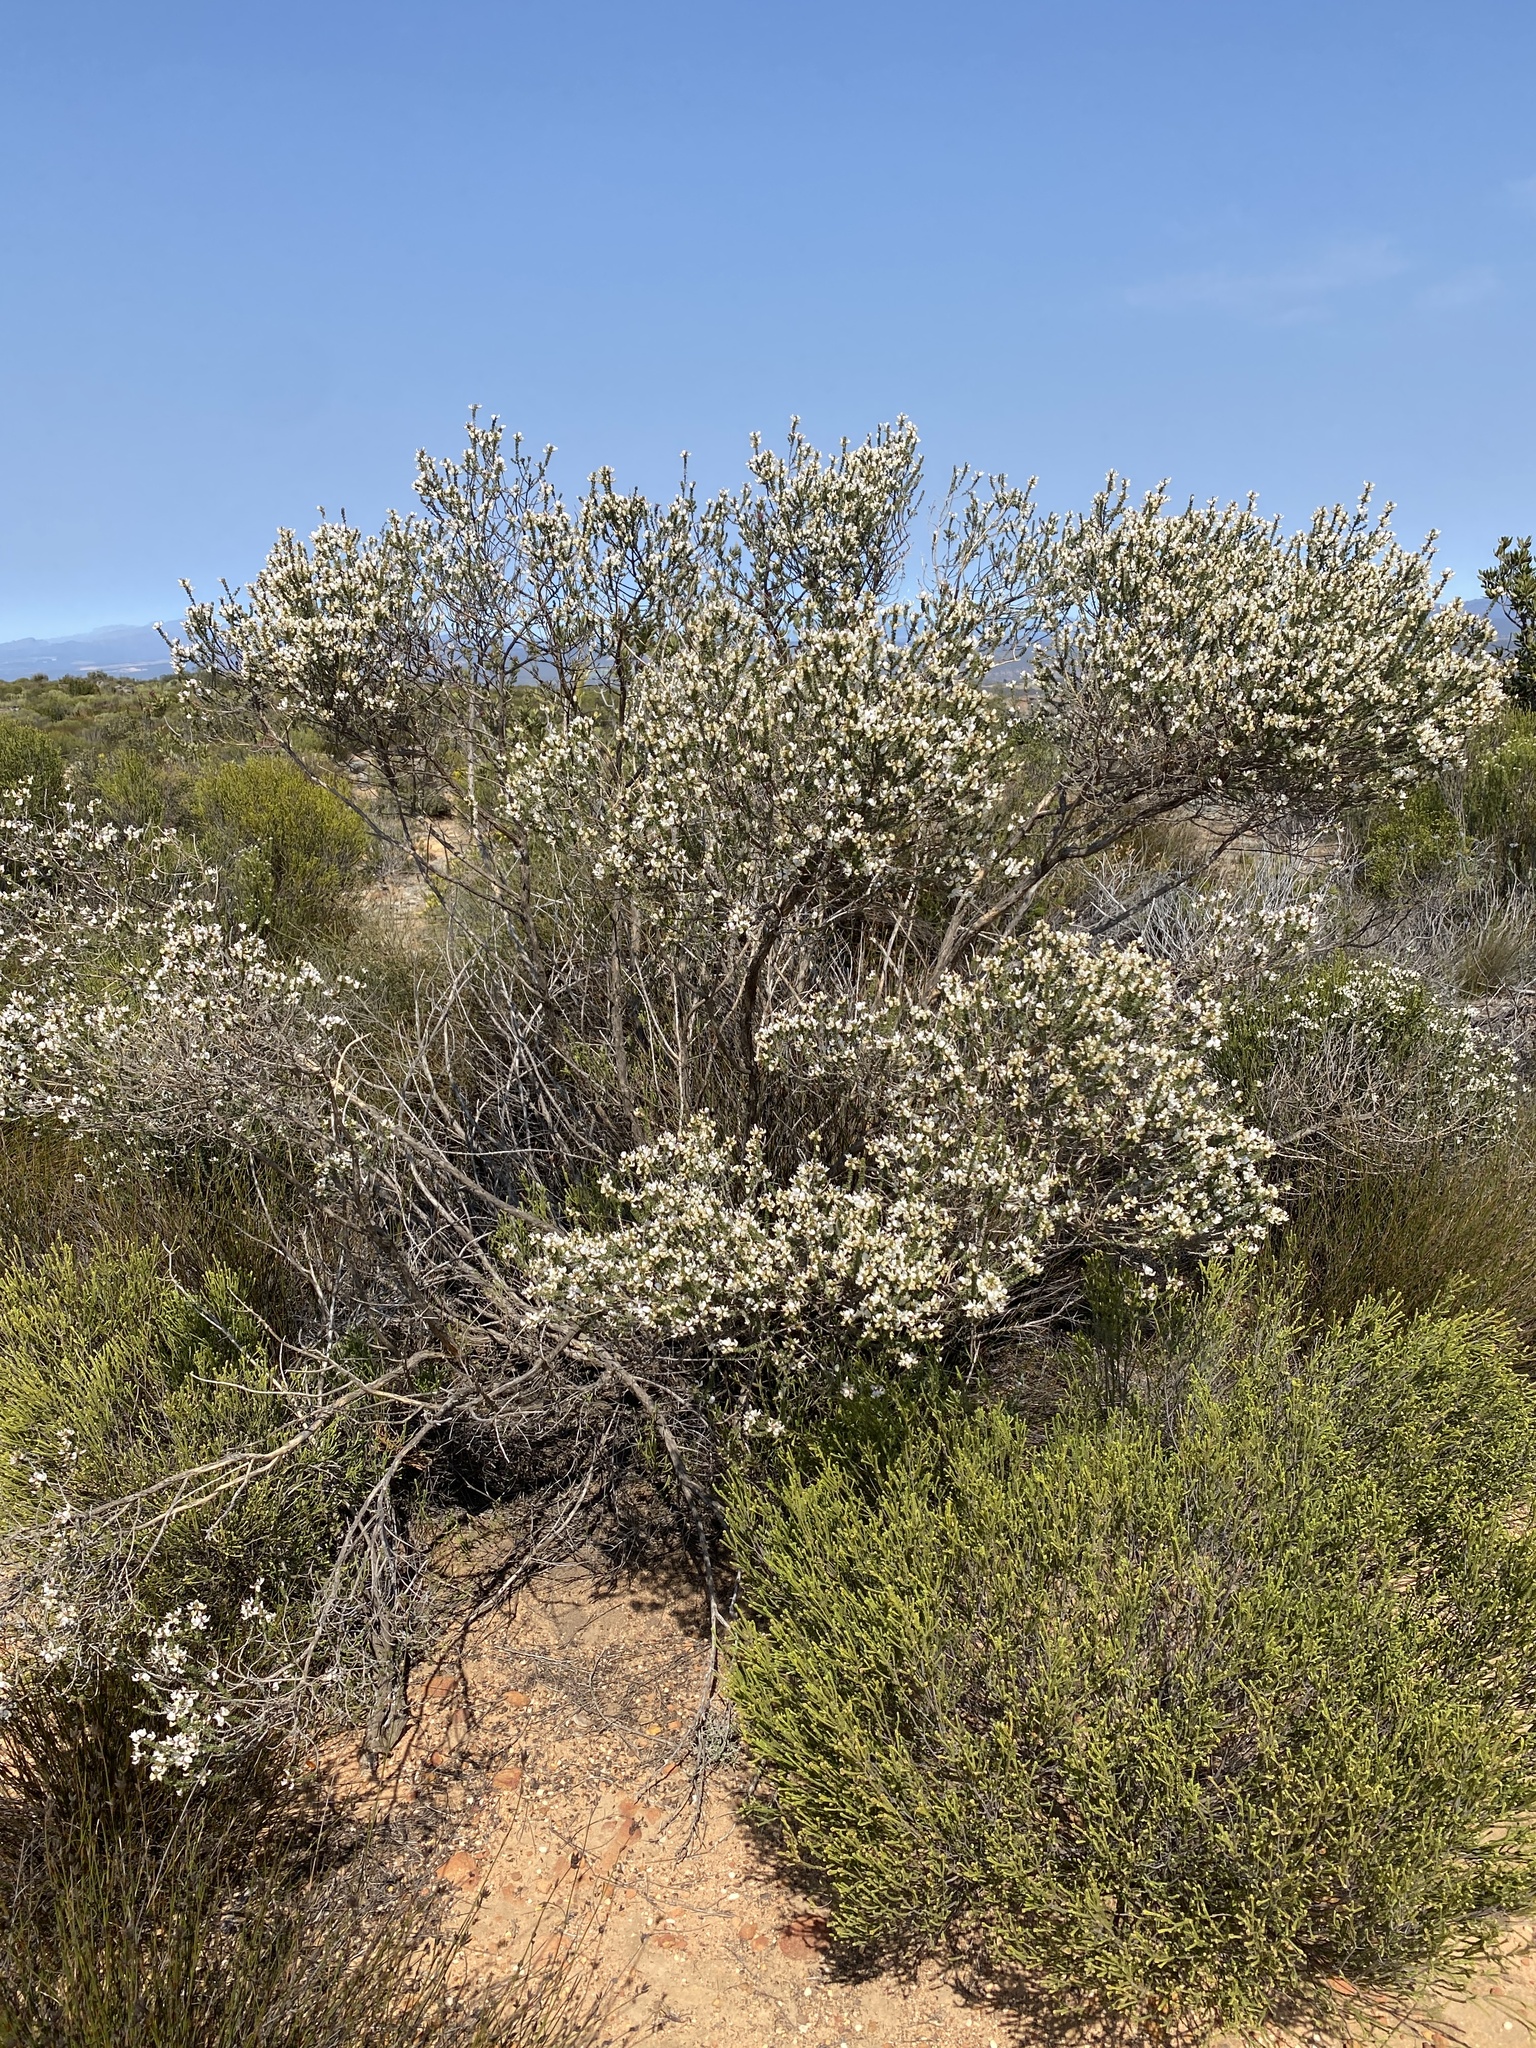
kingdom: Plantae
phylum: Tracheophyta
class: Magnoliopsida
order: Fabales
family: Fabaceae
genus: Aspalathus
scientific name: Aspalathus costulata
